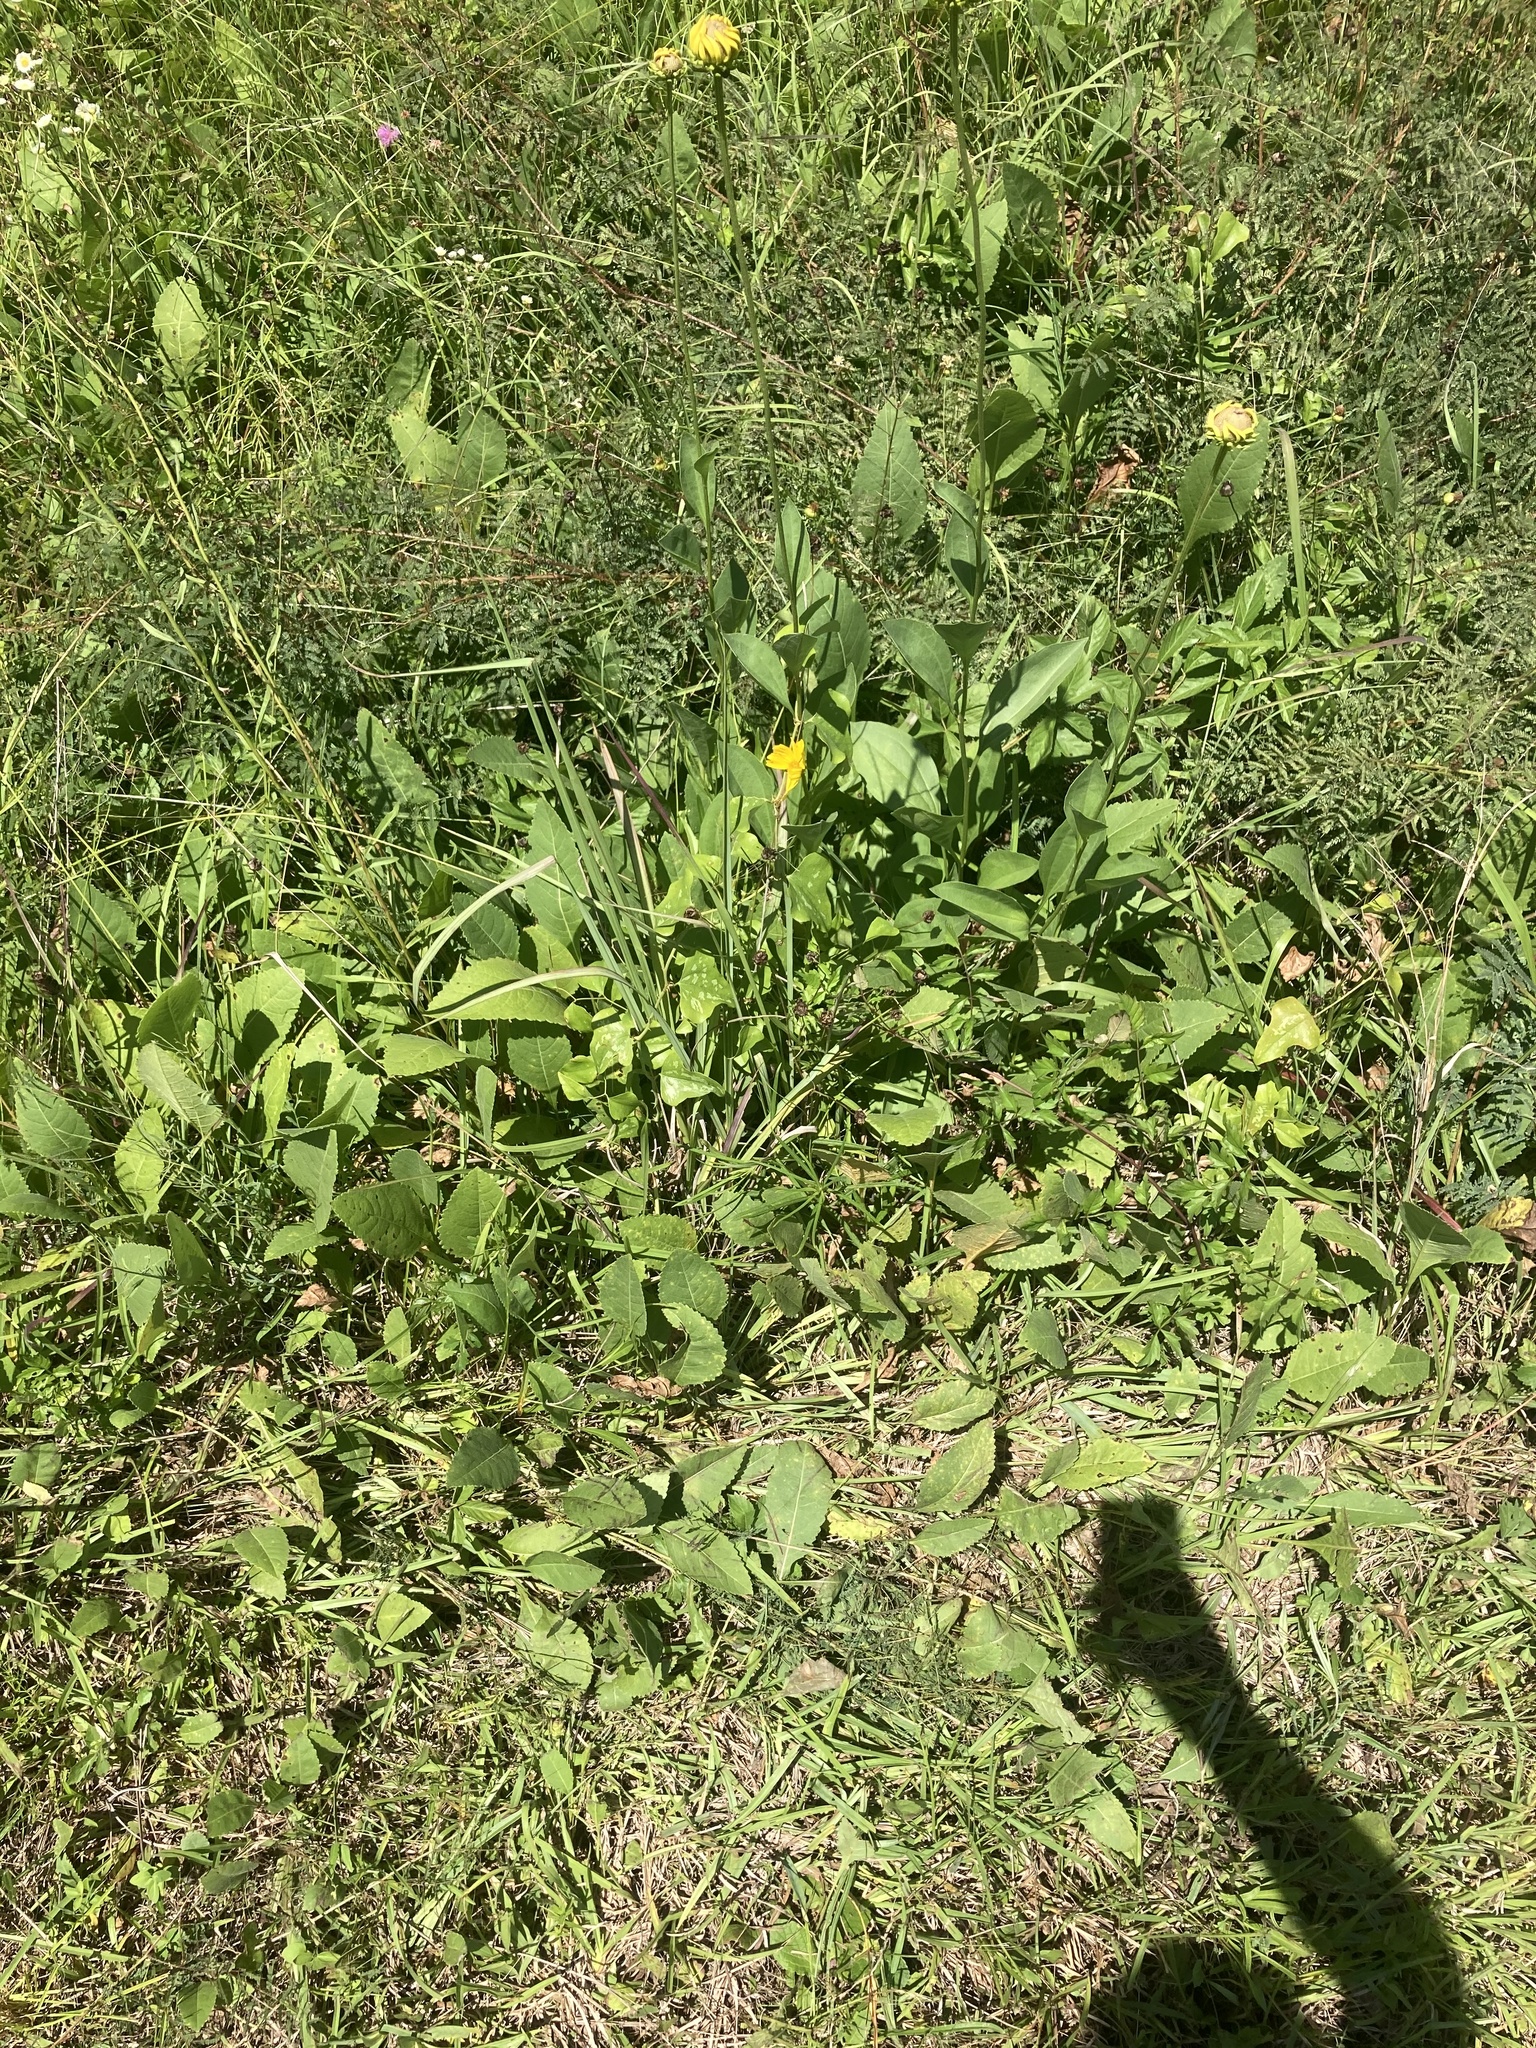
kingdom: Plantae
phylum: Tracheophyta
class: Magnoliopsida
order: Asterales
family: Asteraceae
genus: Rudbeckia
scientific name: Rudbeckia grandiflora
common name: Large-flowered coneflower
